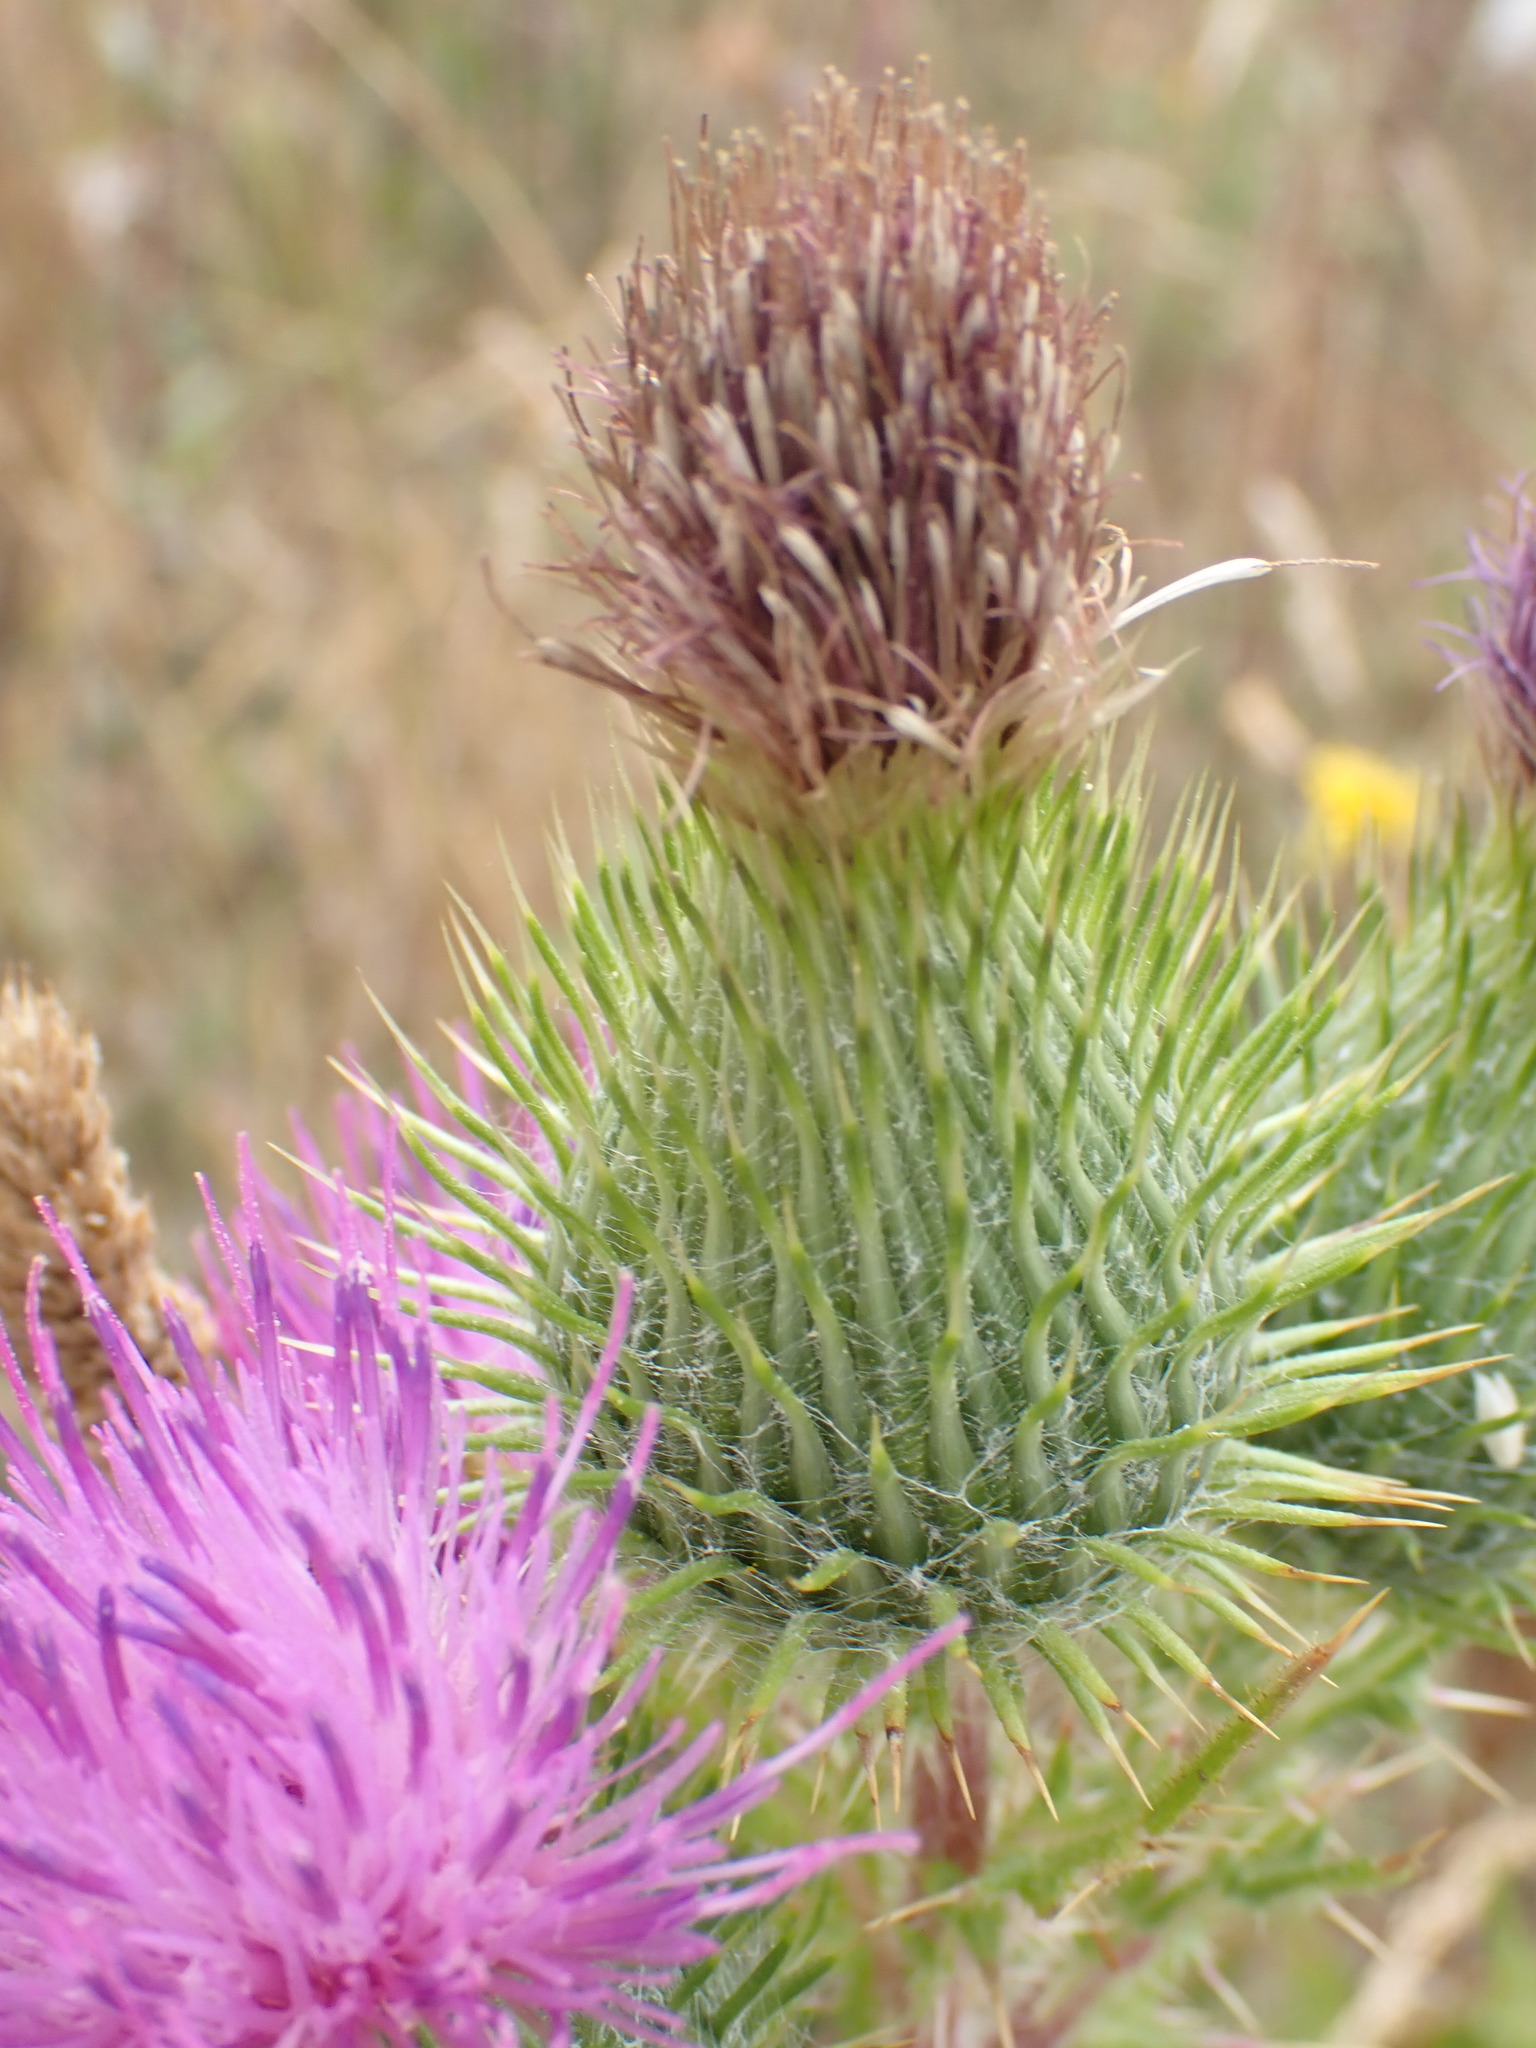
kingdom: Plantae
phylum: Tracheophyta
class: Magnoliopsida
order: Asterales
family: Asteraceae
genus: Cirsium
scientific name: Cirsium vulgare
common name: Bull thistle
